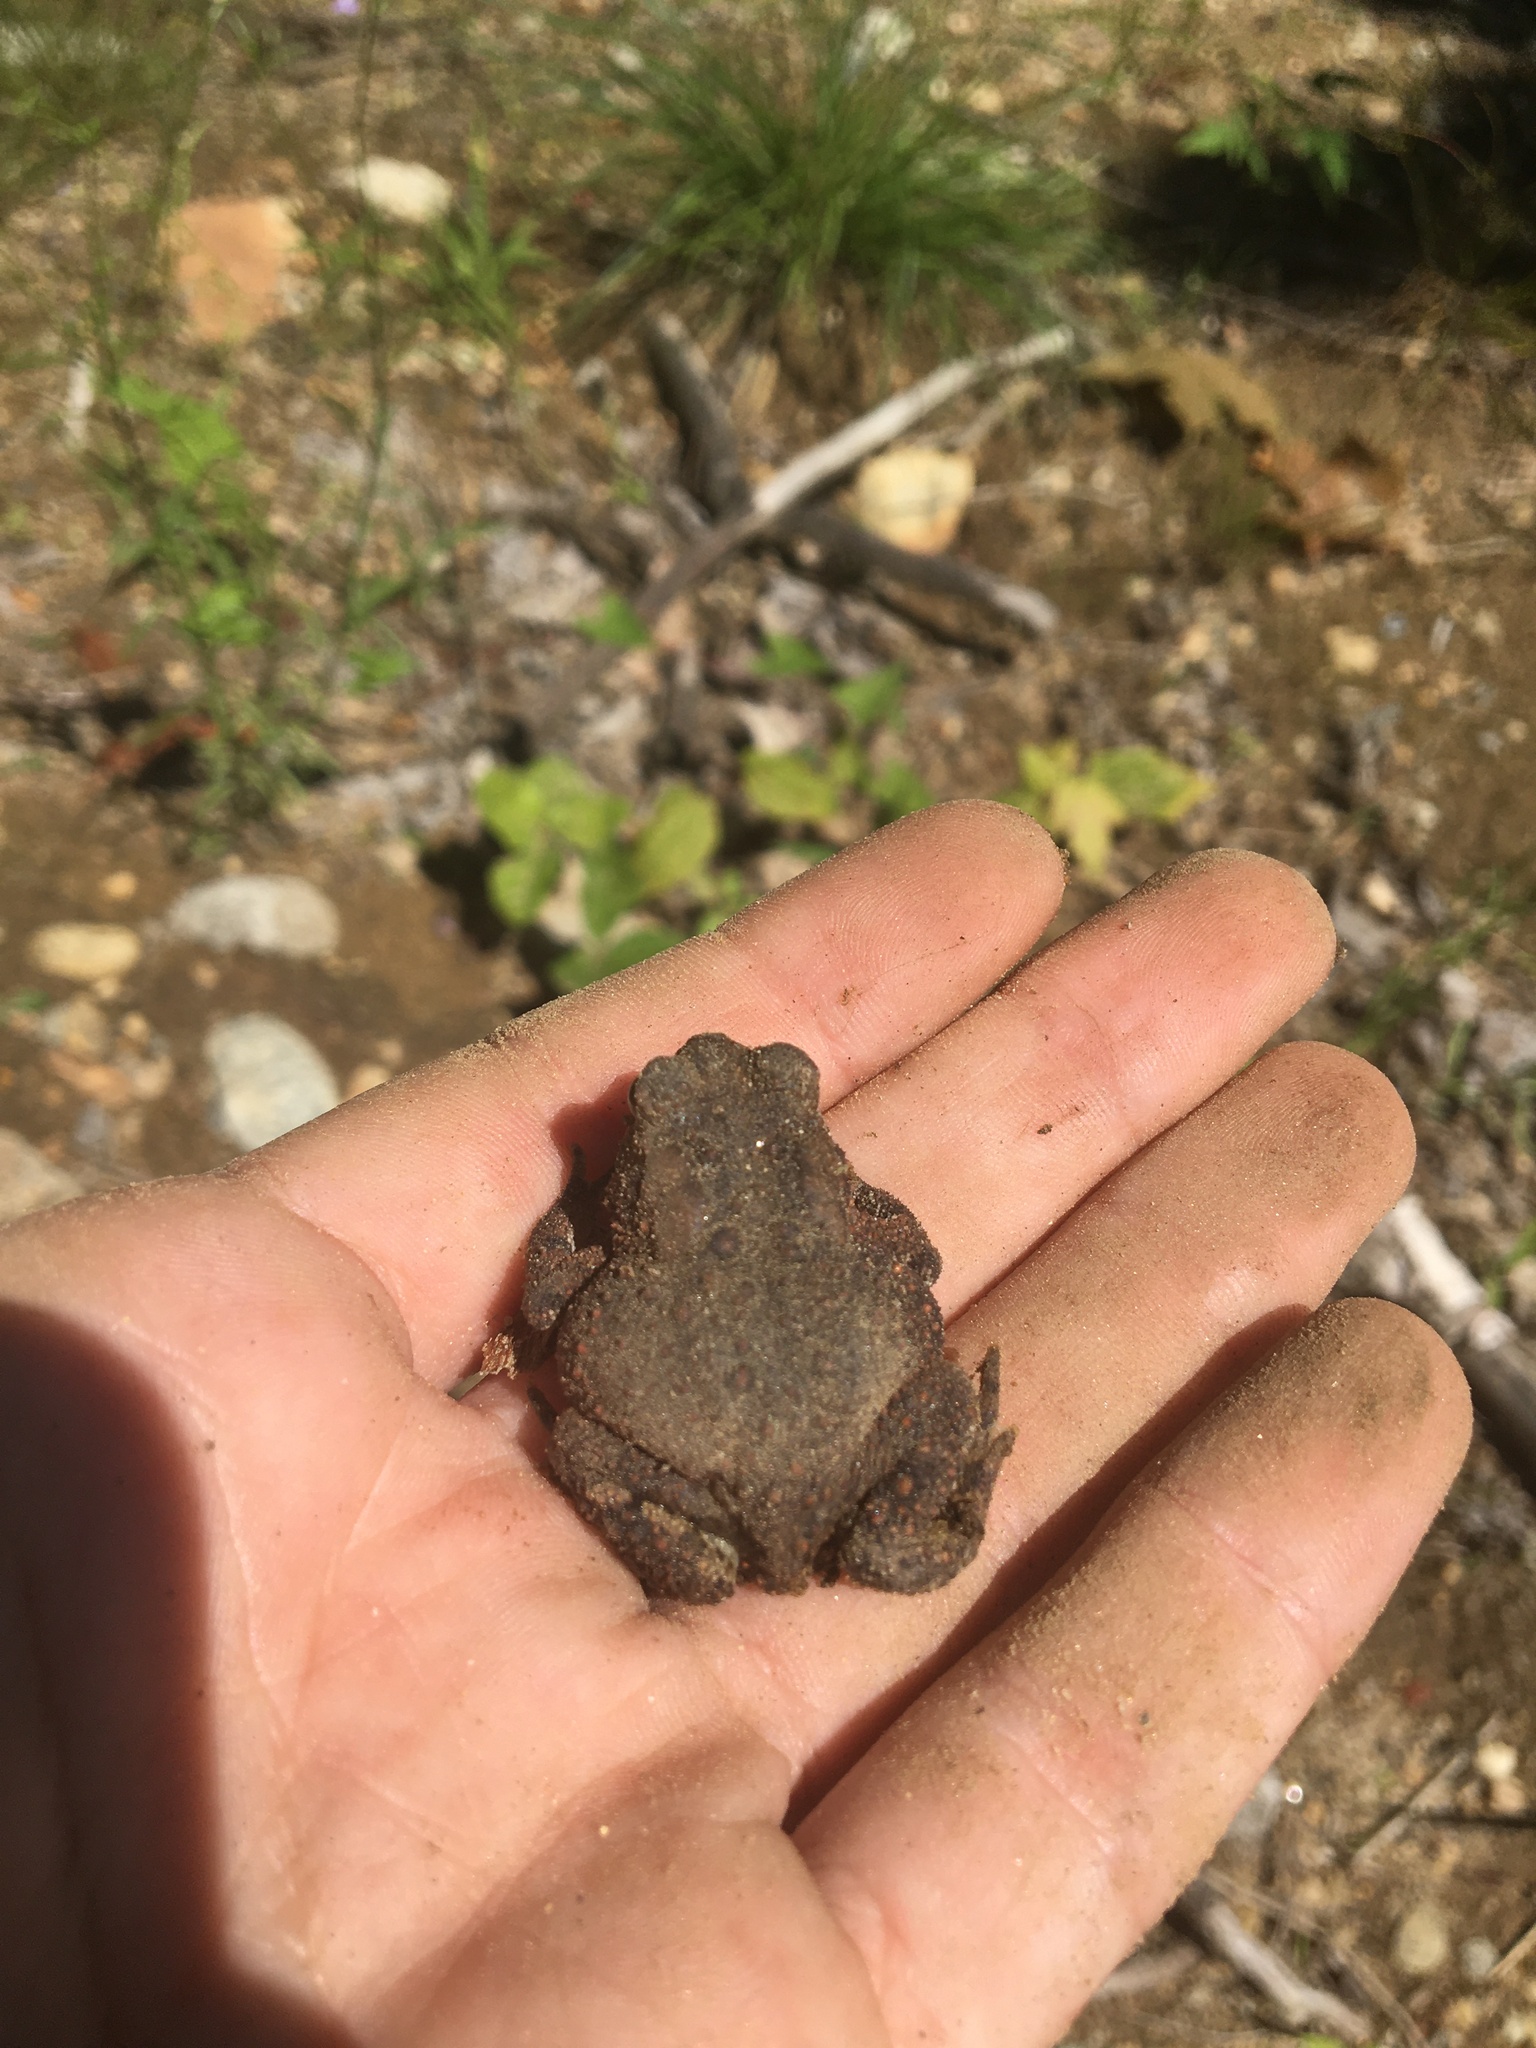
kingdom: Animalia
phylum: Chordata
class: Amphibia
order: Anura
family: Bufonidae
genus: Anaxyrus
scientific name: Anaxyrus americanus
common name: American toad
